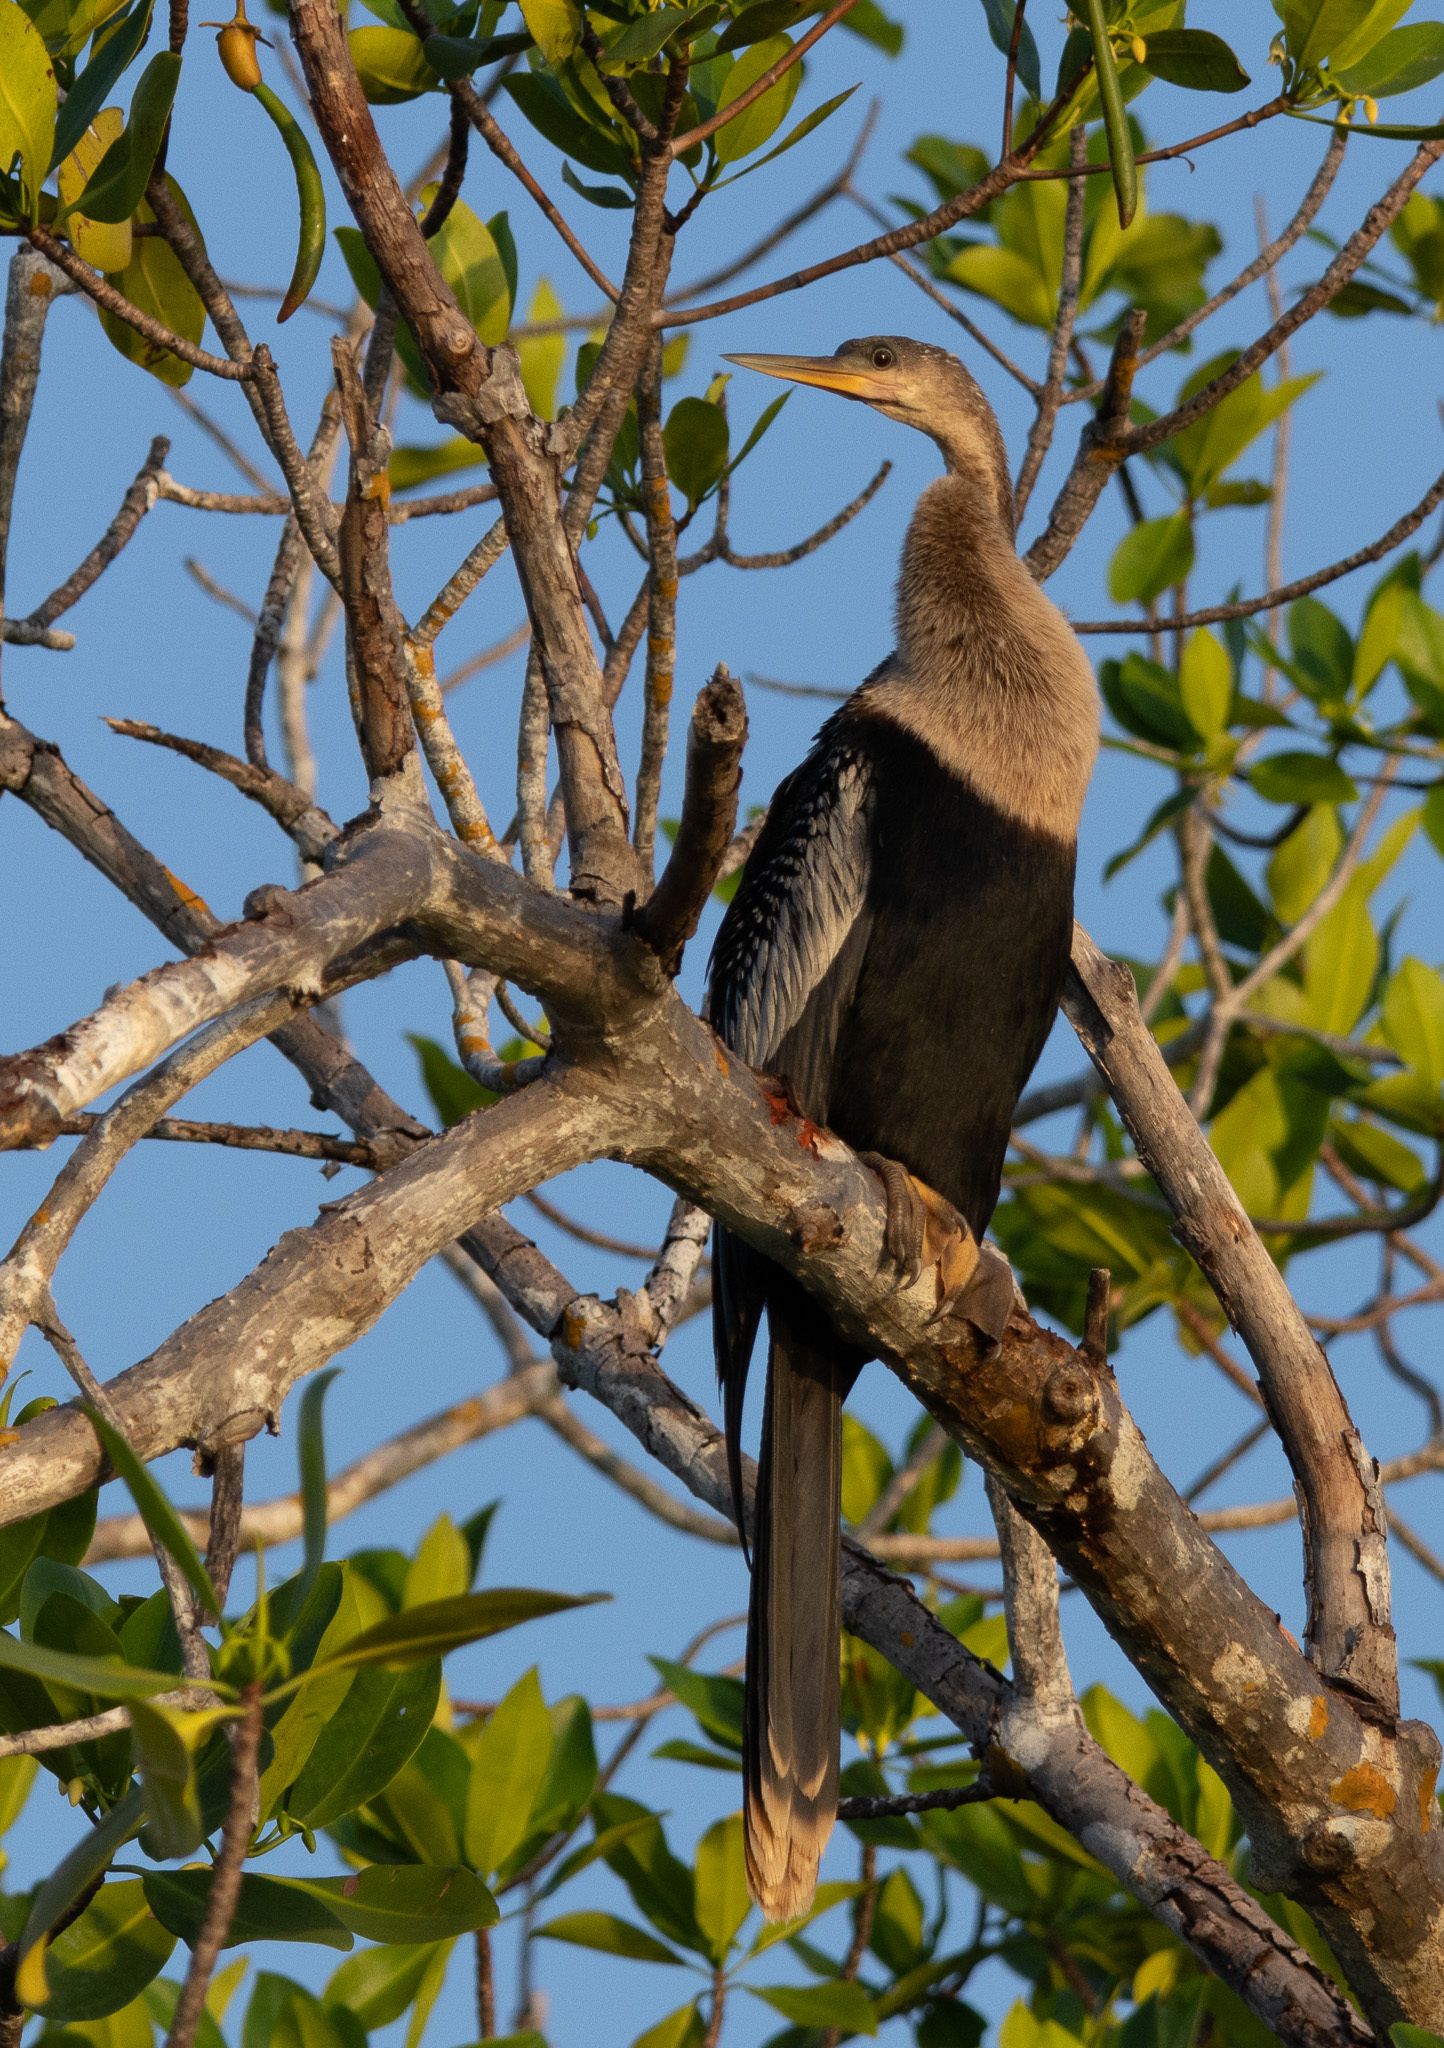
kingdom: Animalia
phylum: Chordata
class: Aves
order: Suliformes
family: Anhingidae
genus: Anhinga
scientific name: Anhinga anhinga
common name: Anhinga
